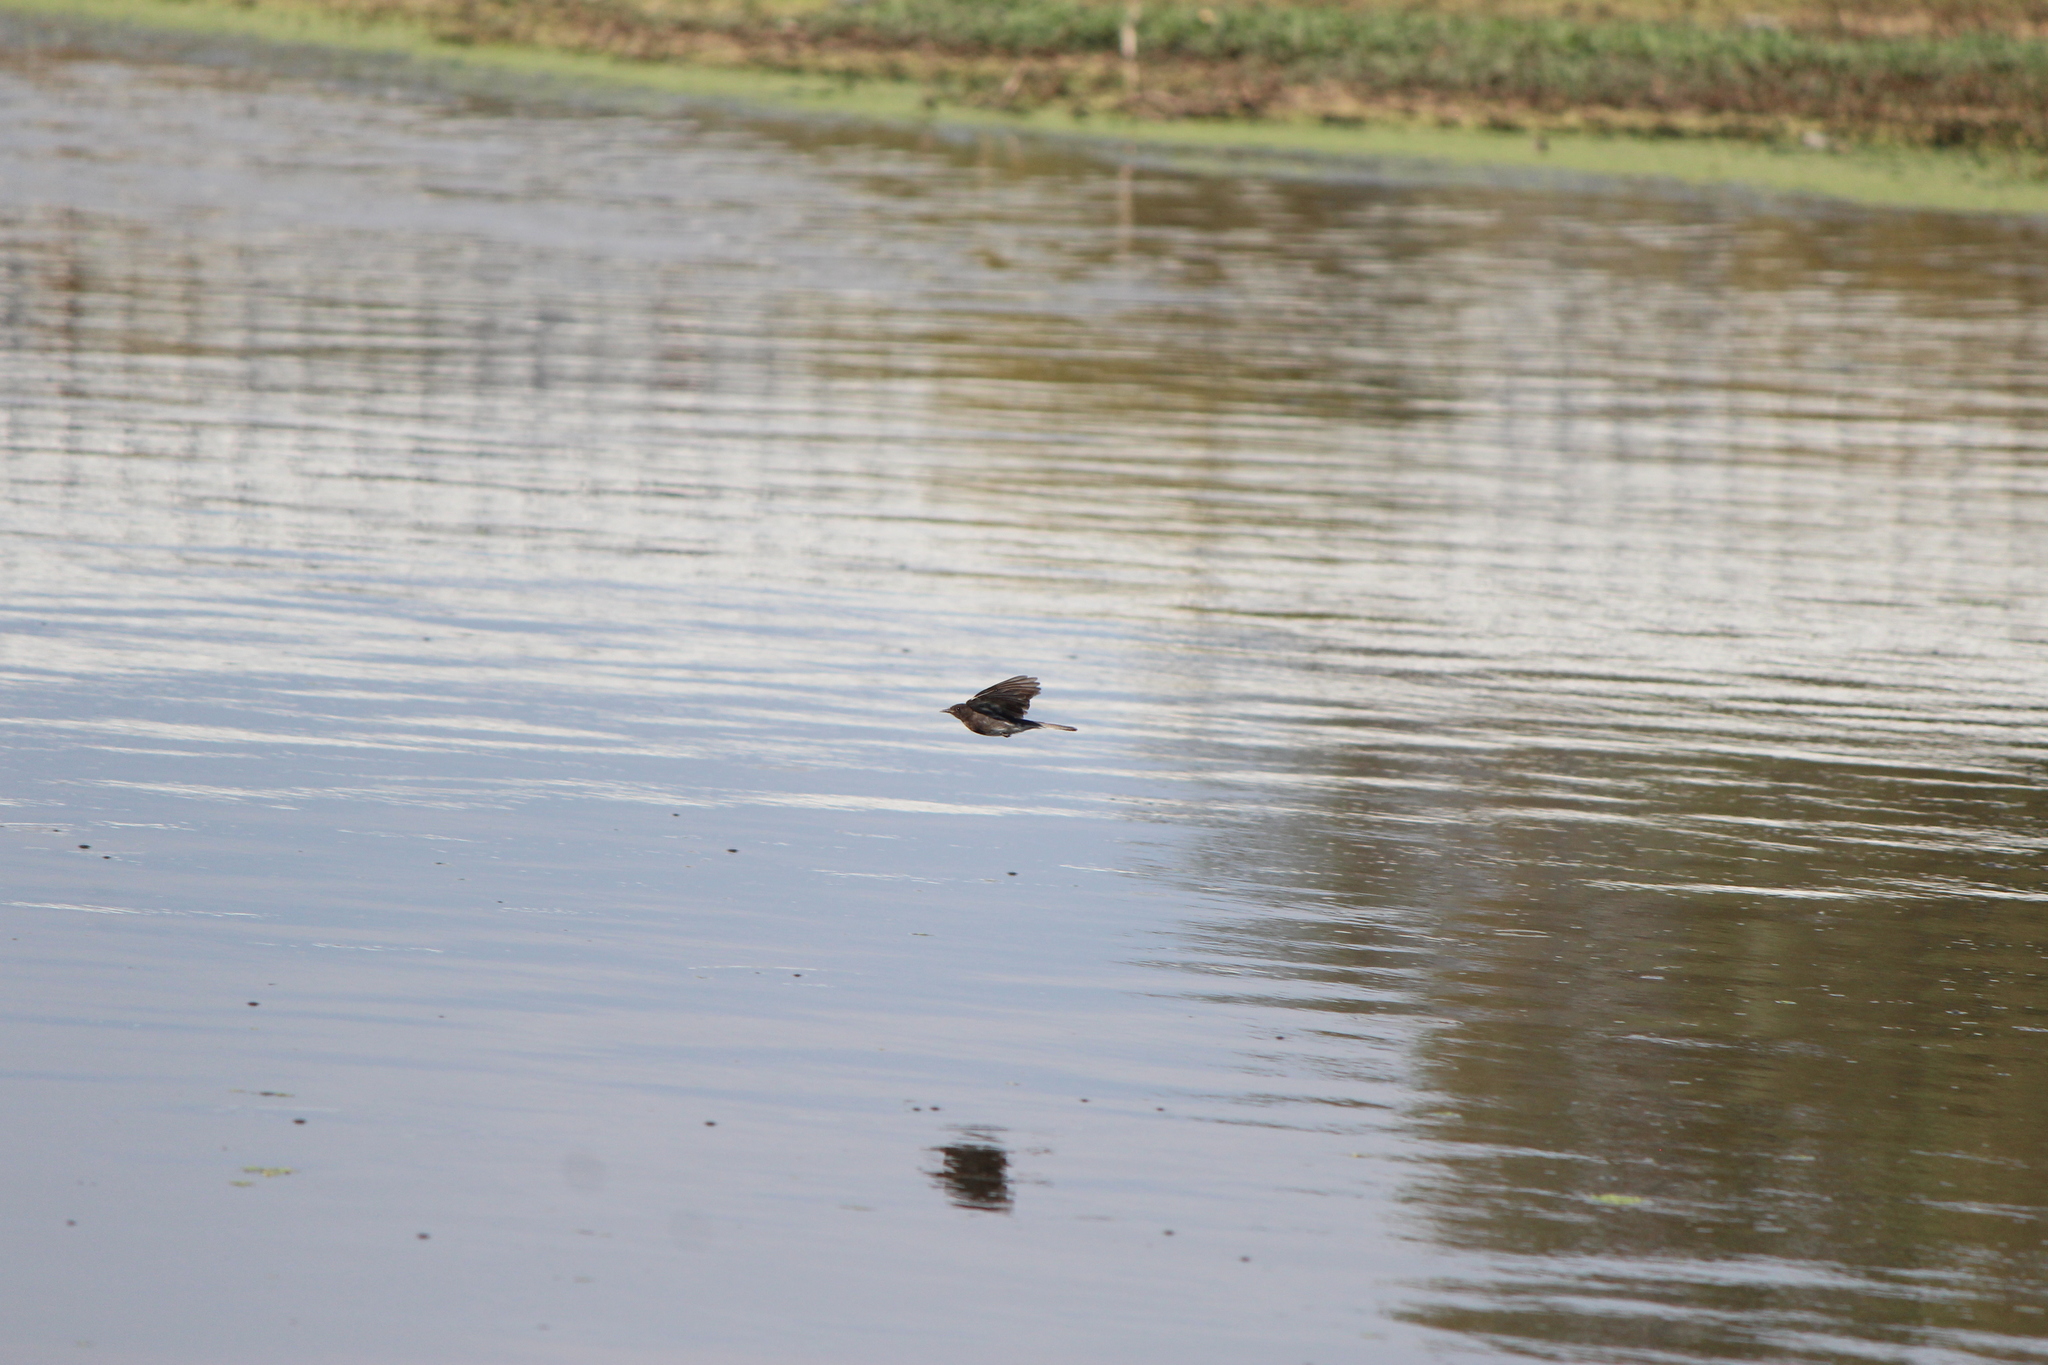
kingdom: Animalia
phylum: Chordata
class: Aves
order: Passeriformes
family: Tyrannidae
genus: Sayornis
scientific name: Sayornis nigricans
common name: Black phoebe
